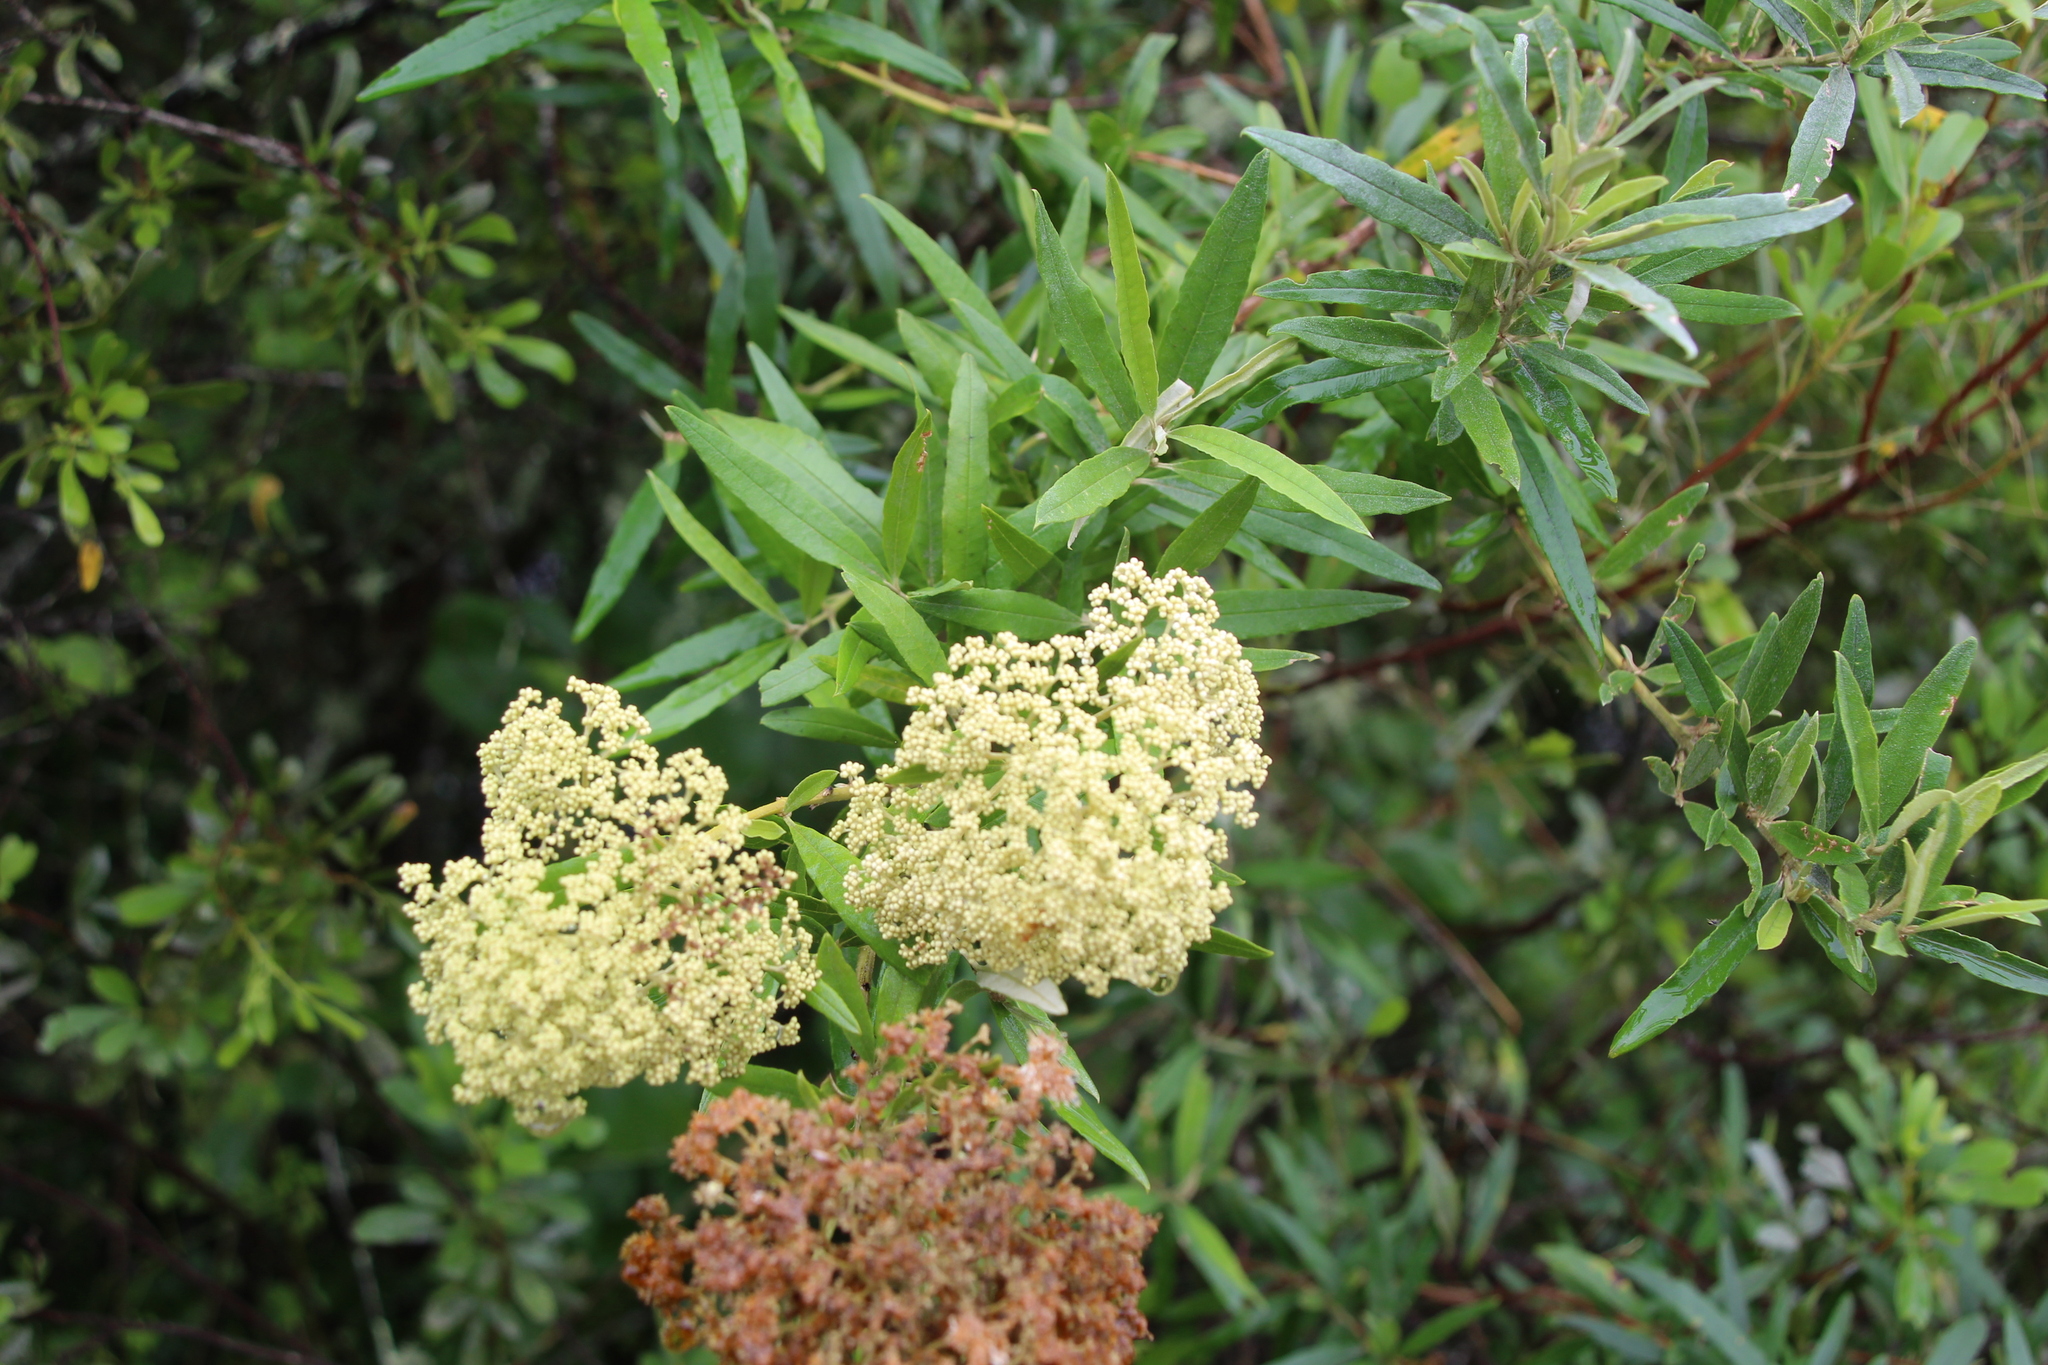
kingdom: Plantae
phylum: Tracheophyta
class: Magnoliopsida
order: Lamiales
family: Scrophulariaceae
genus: Buddleja
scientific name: Buddleja saligna
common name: False olive
